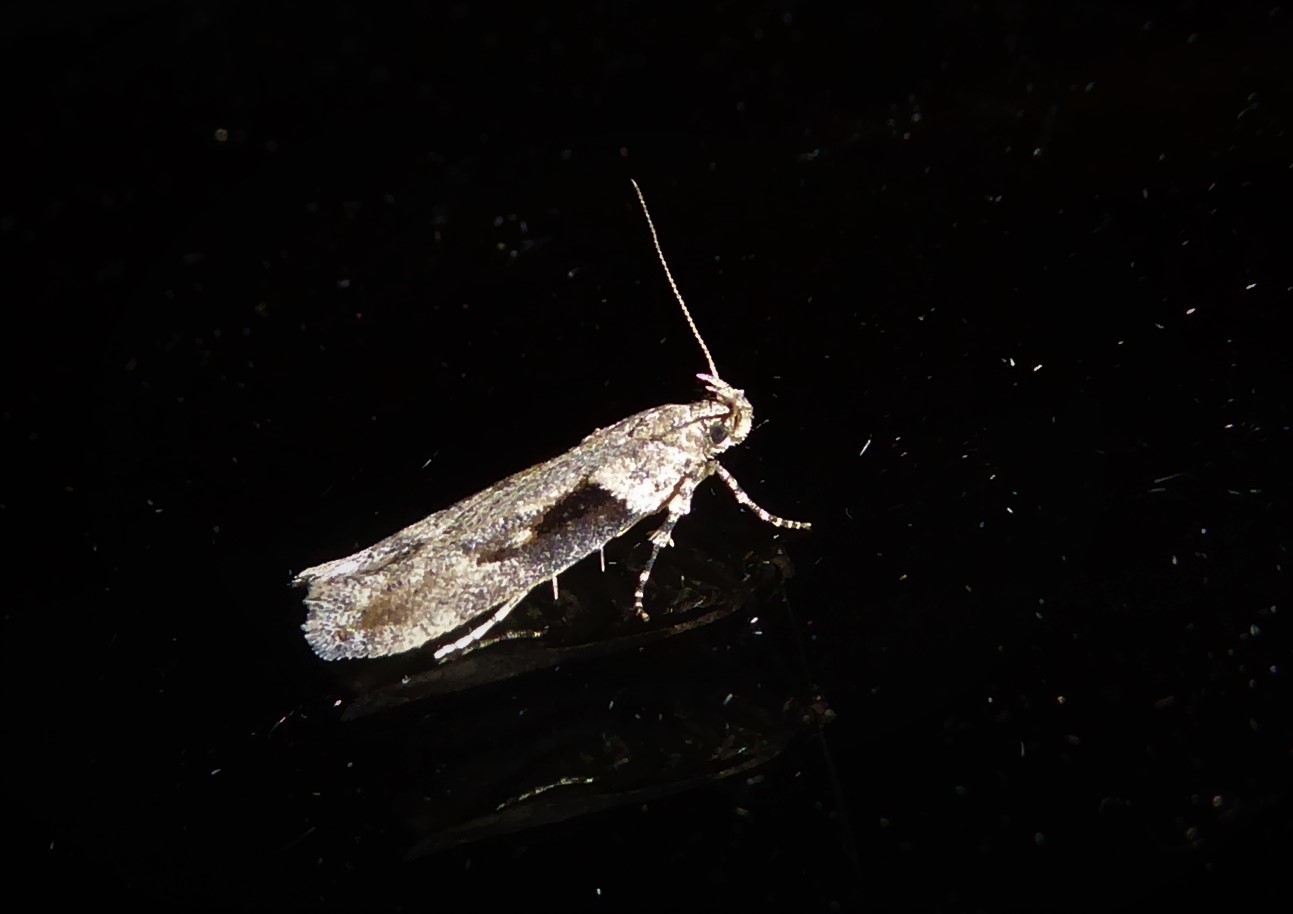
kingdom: Animalia
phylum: Arthropoda
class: Insecta
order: Lepidoptera
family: Gelechiidae
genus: Symmetrischema
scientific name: Symmetrischema tangolias
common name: Moth
